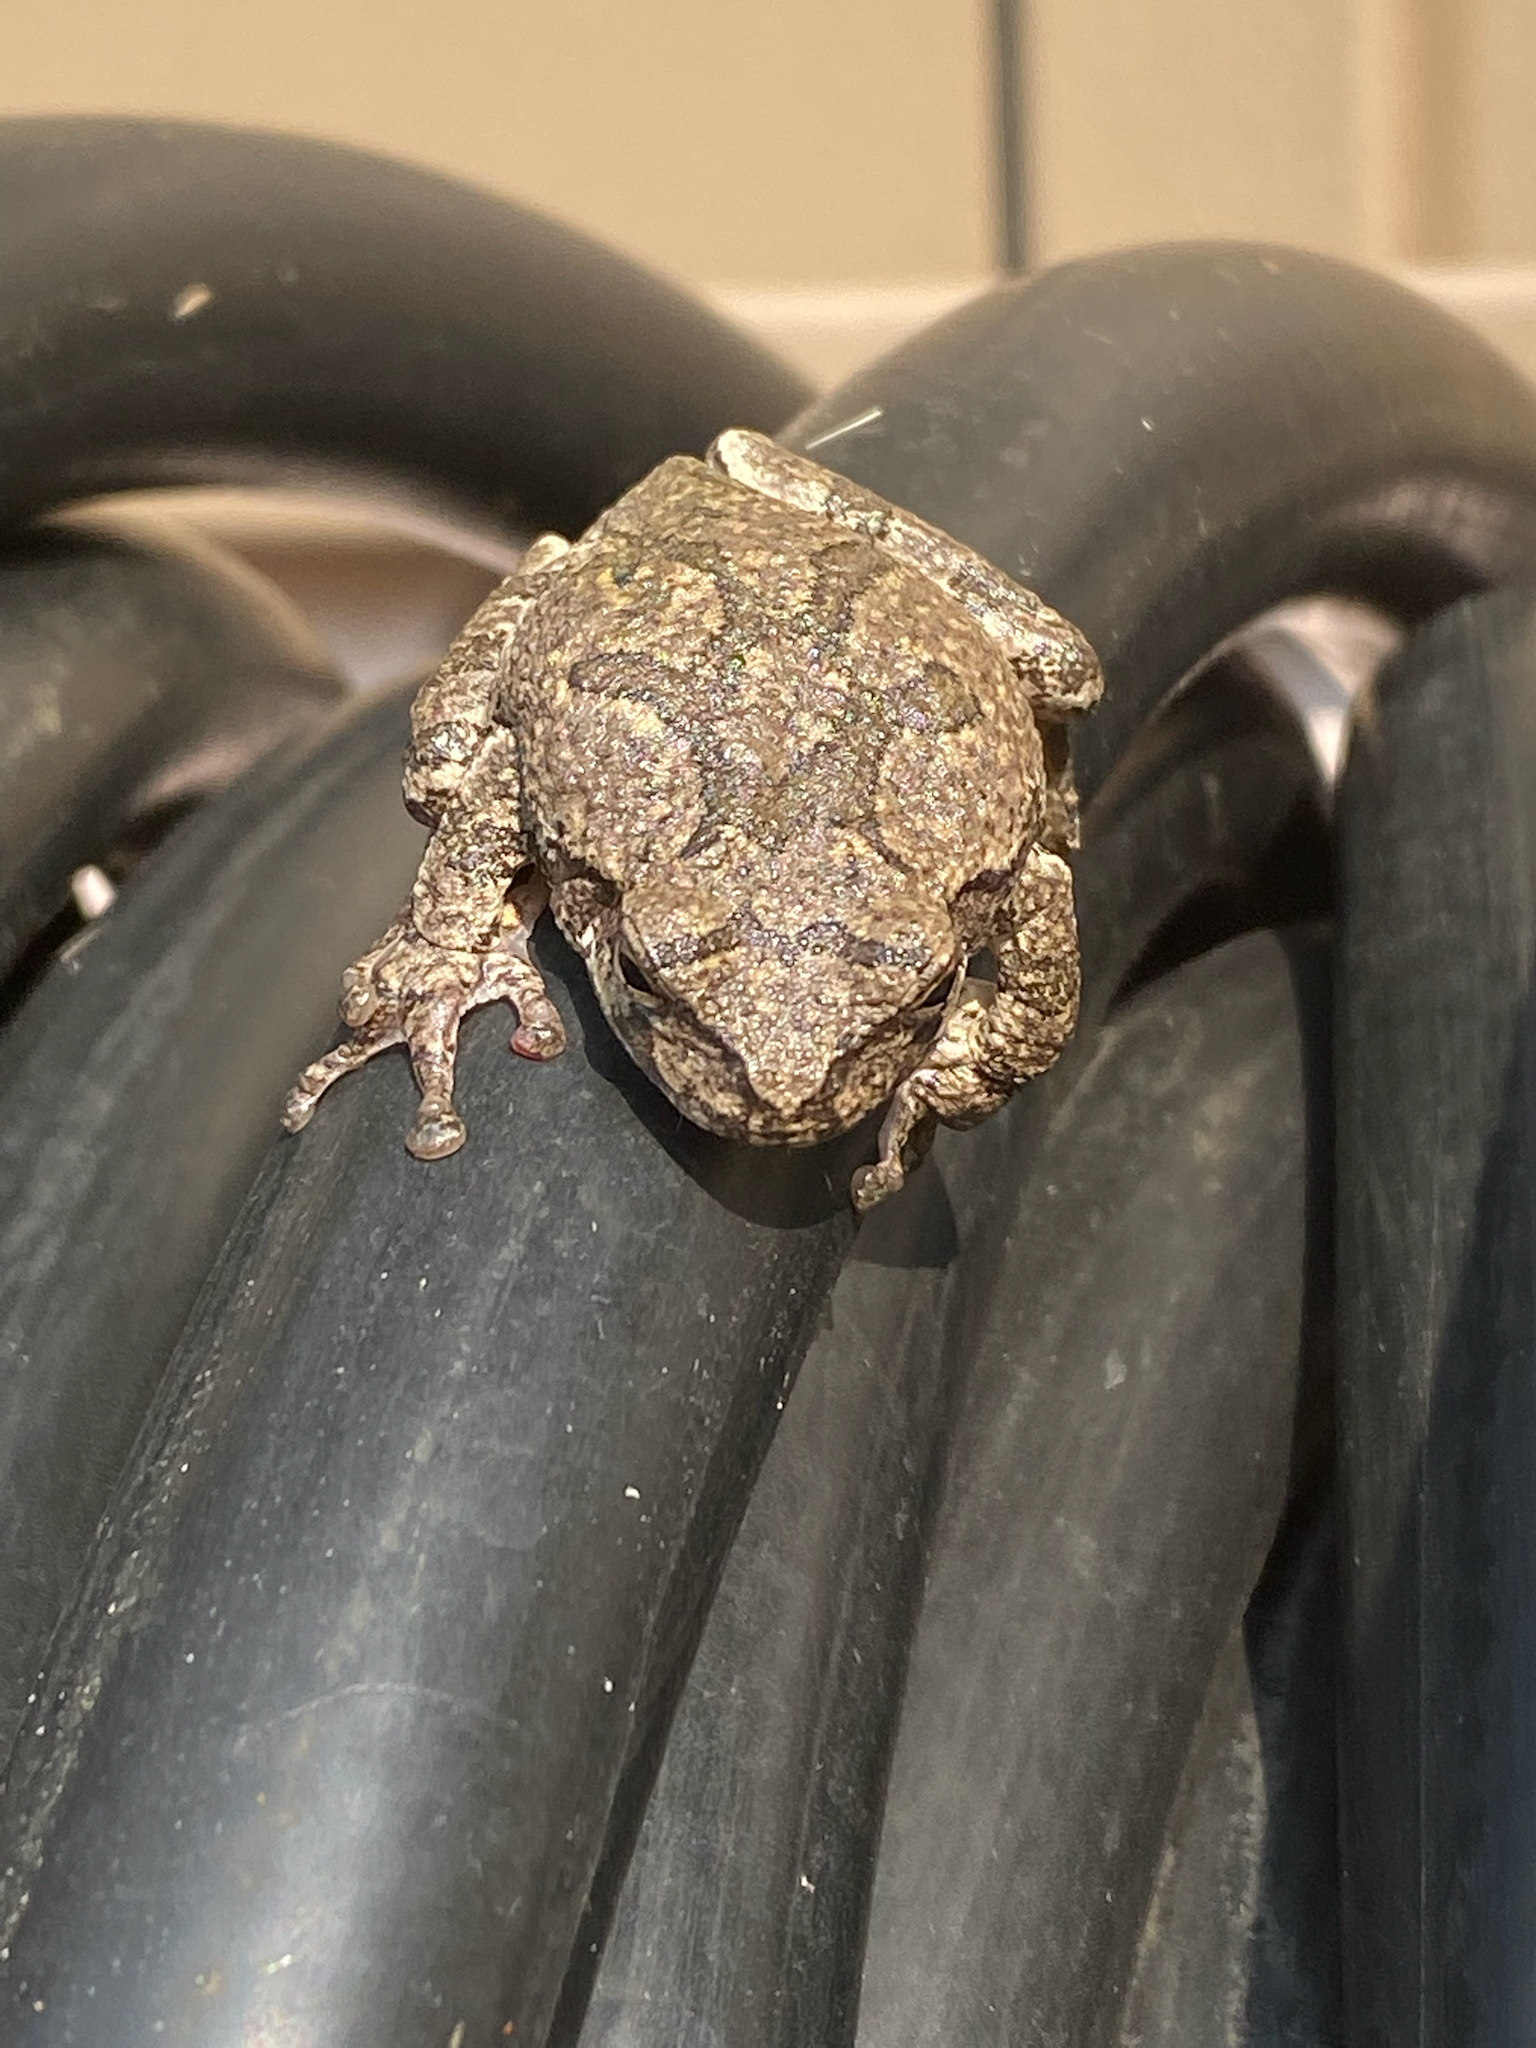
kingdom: Animalia
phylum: Chordata
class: Amphibia
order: Anura
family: Hylidae
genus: Hyla
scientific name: Hyla
